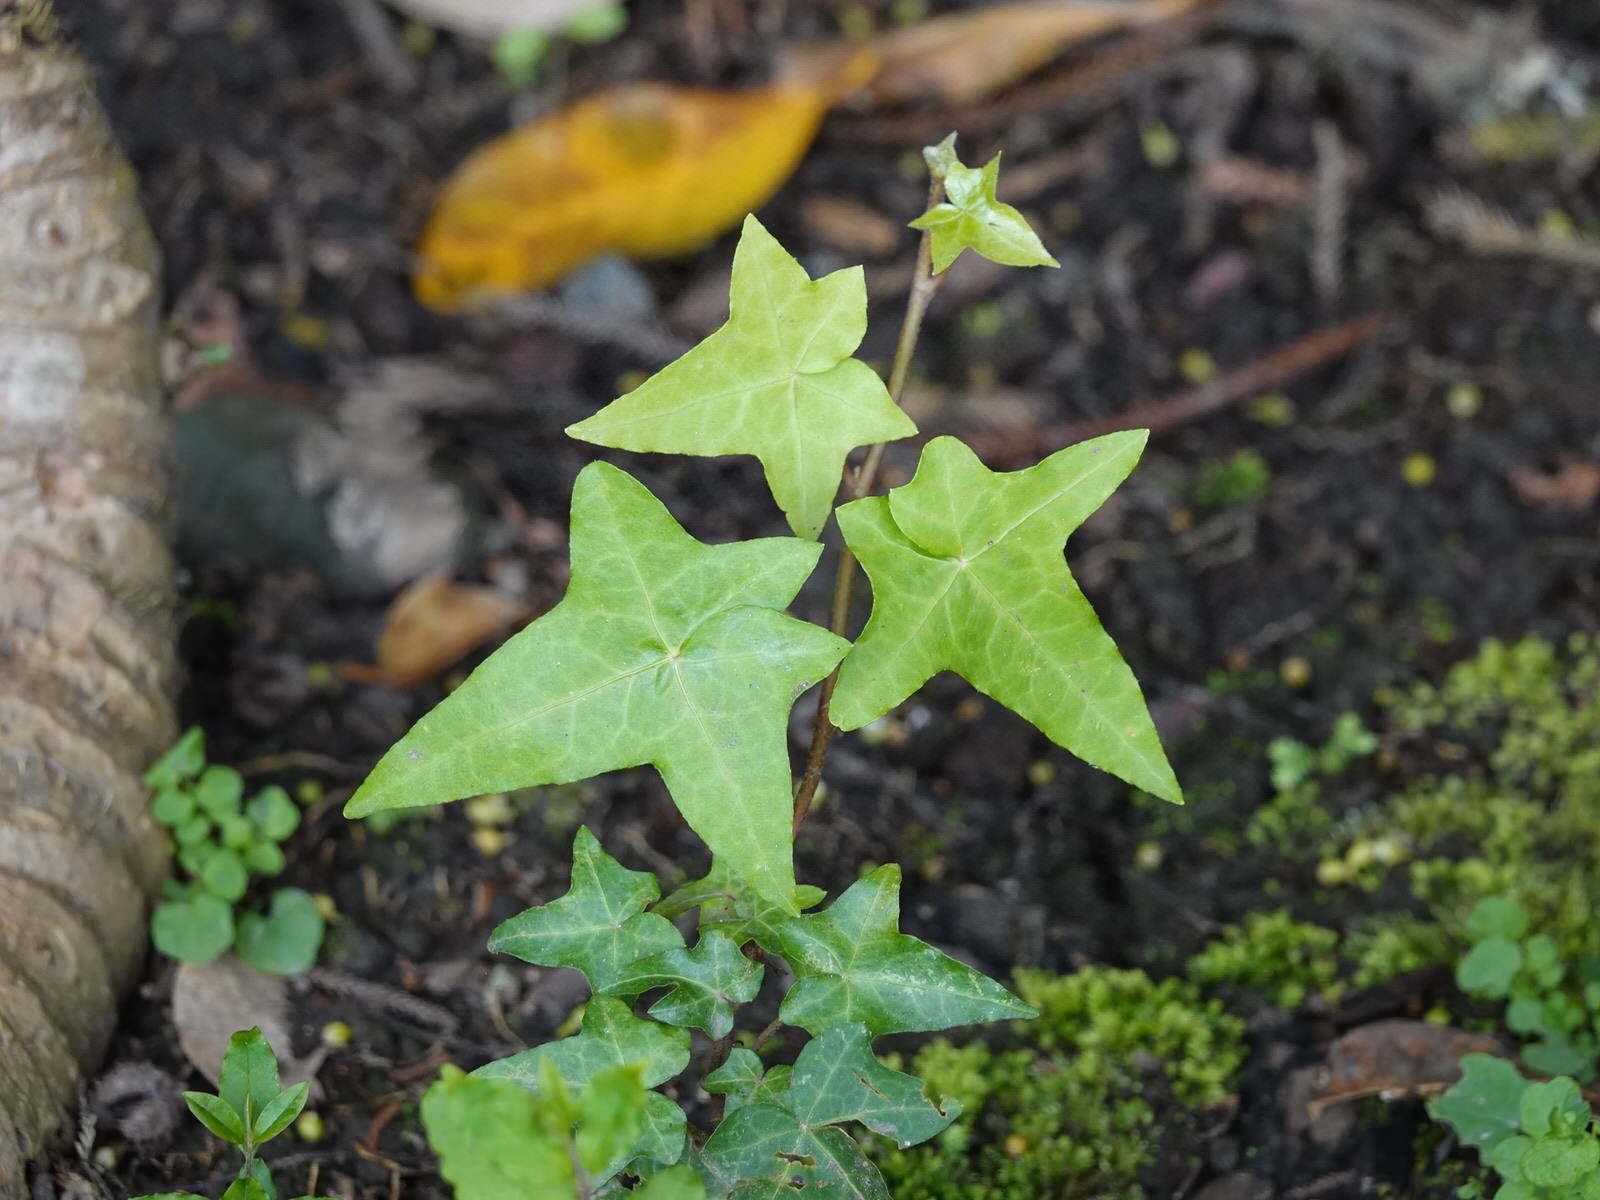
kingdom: Plantae
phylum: Tracheophyta
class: Magnoliopsida
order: Apiales
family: Araliaceae
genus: Hedera
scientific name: Hedera helix
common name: Ivy
